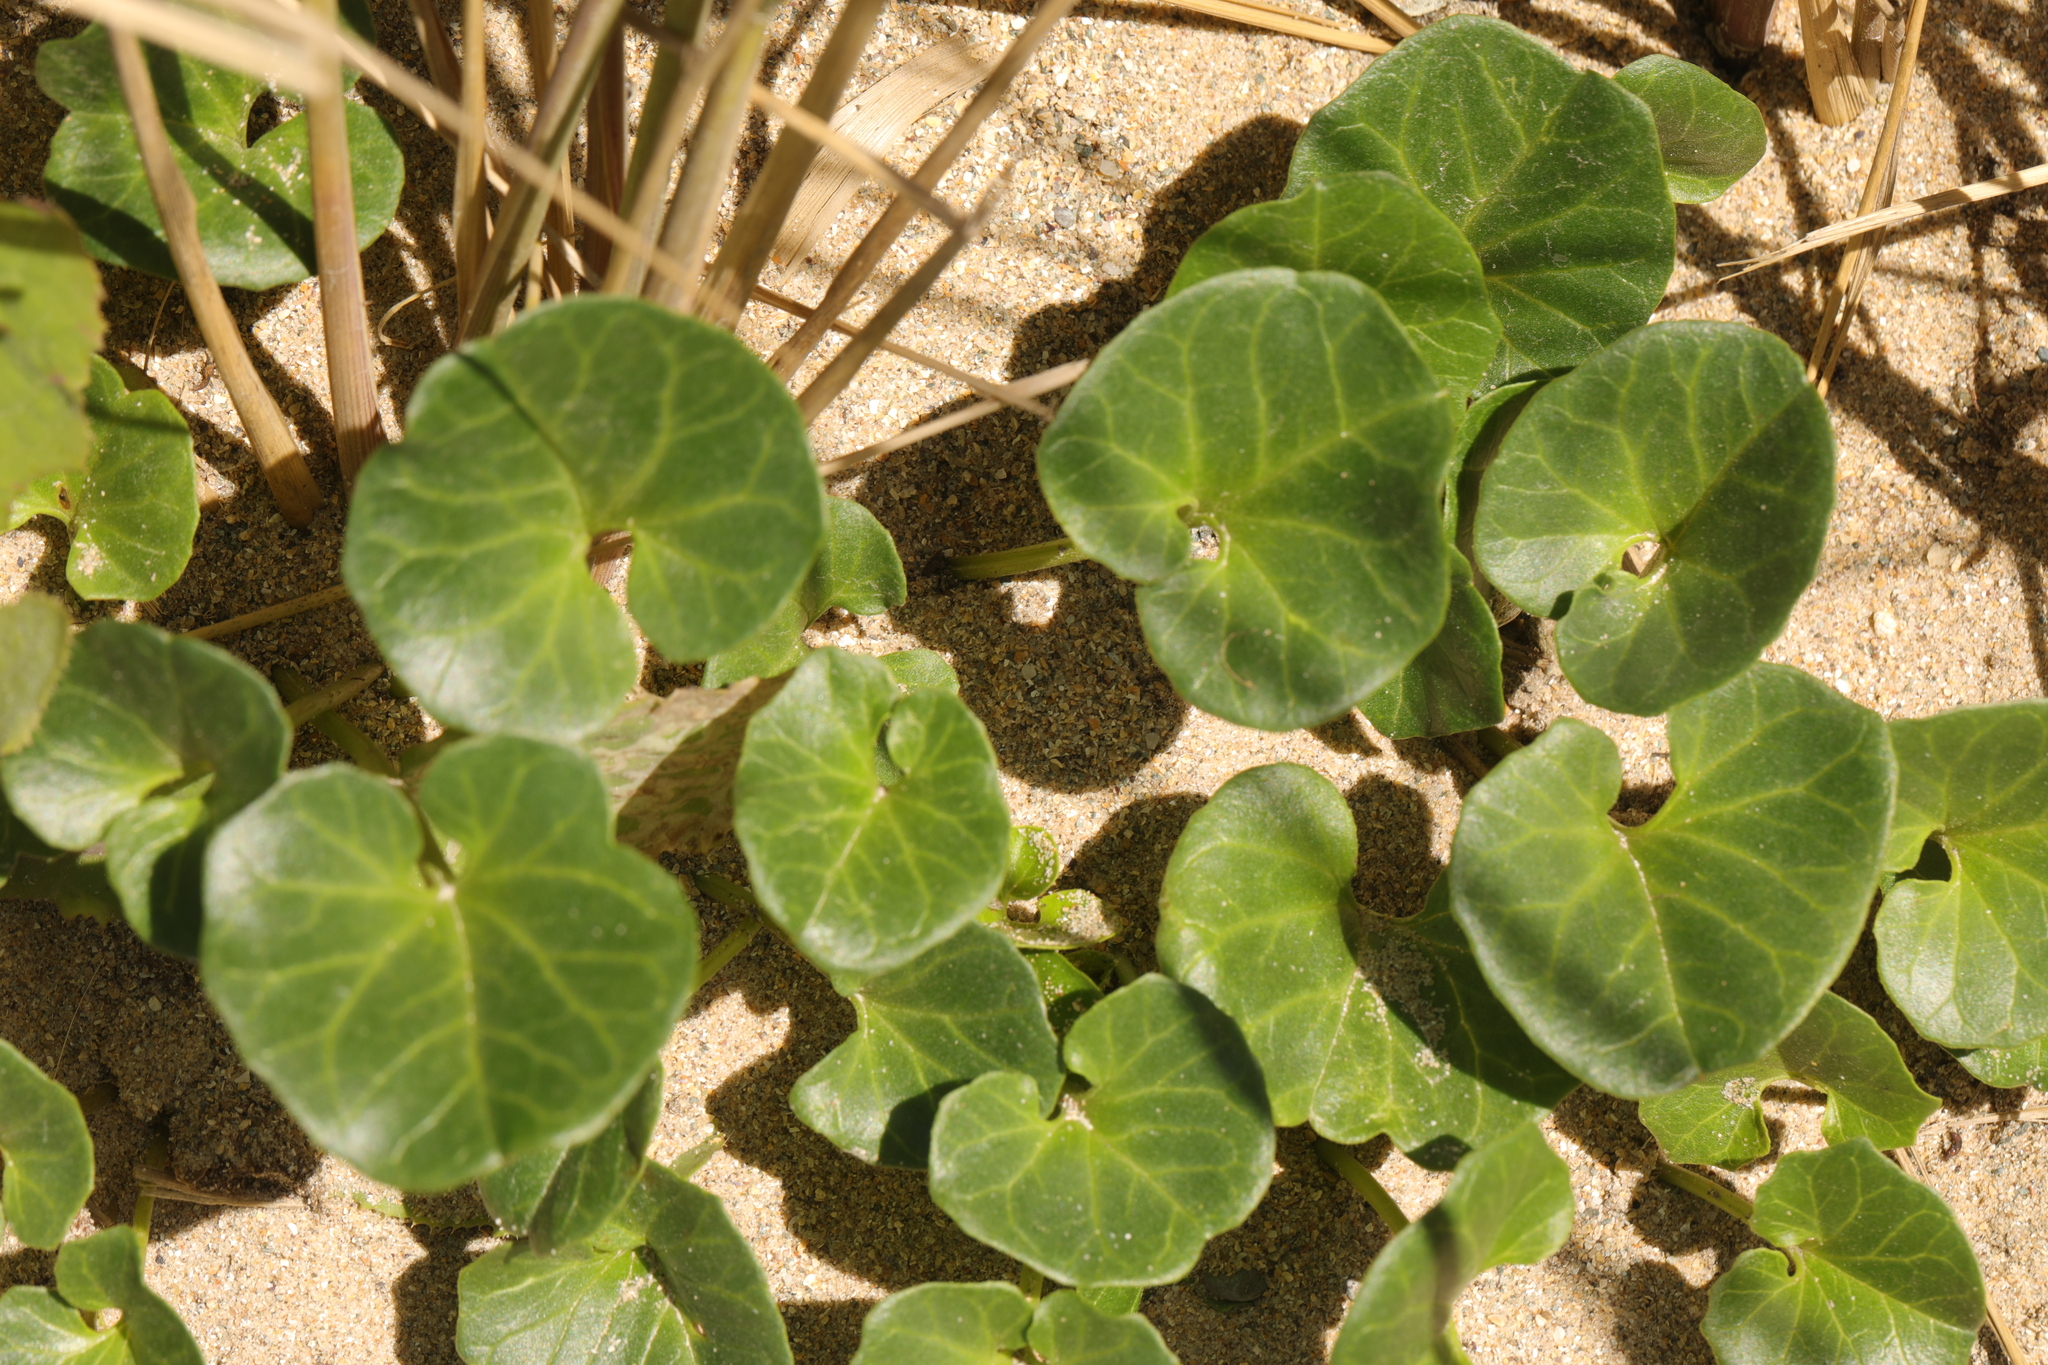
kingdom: Plantae
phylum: Tracheophyta
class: Magnoliopsida
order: Solanales
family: Convolvulaceae
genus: Calystegia
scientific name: Calystegia soldanella
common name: Sea bindweed
